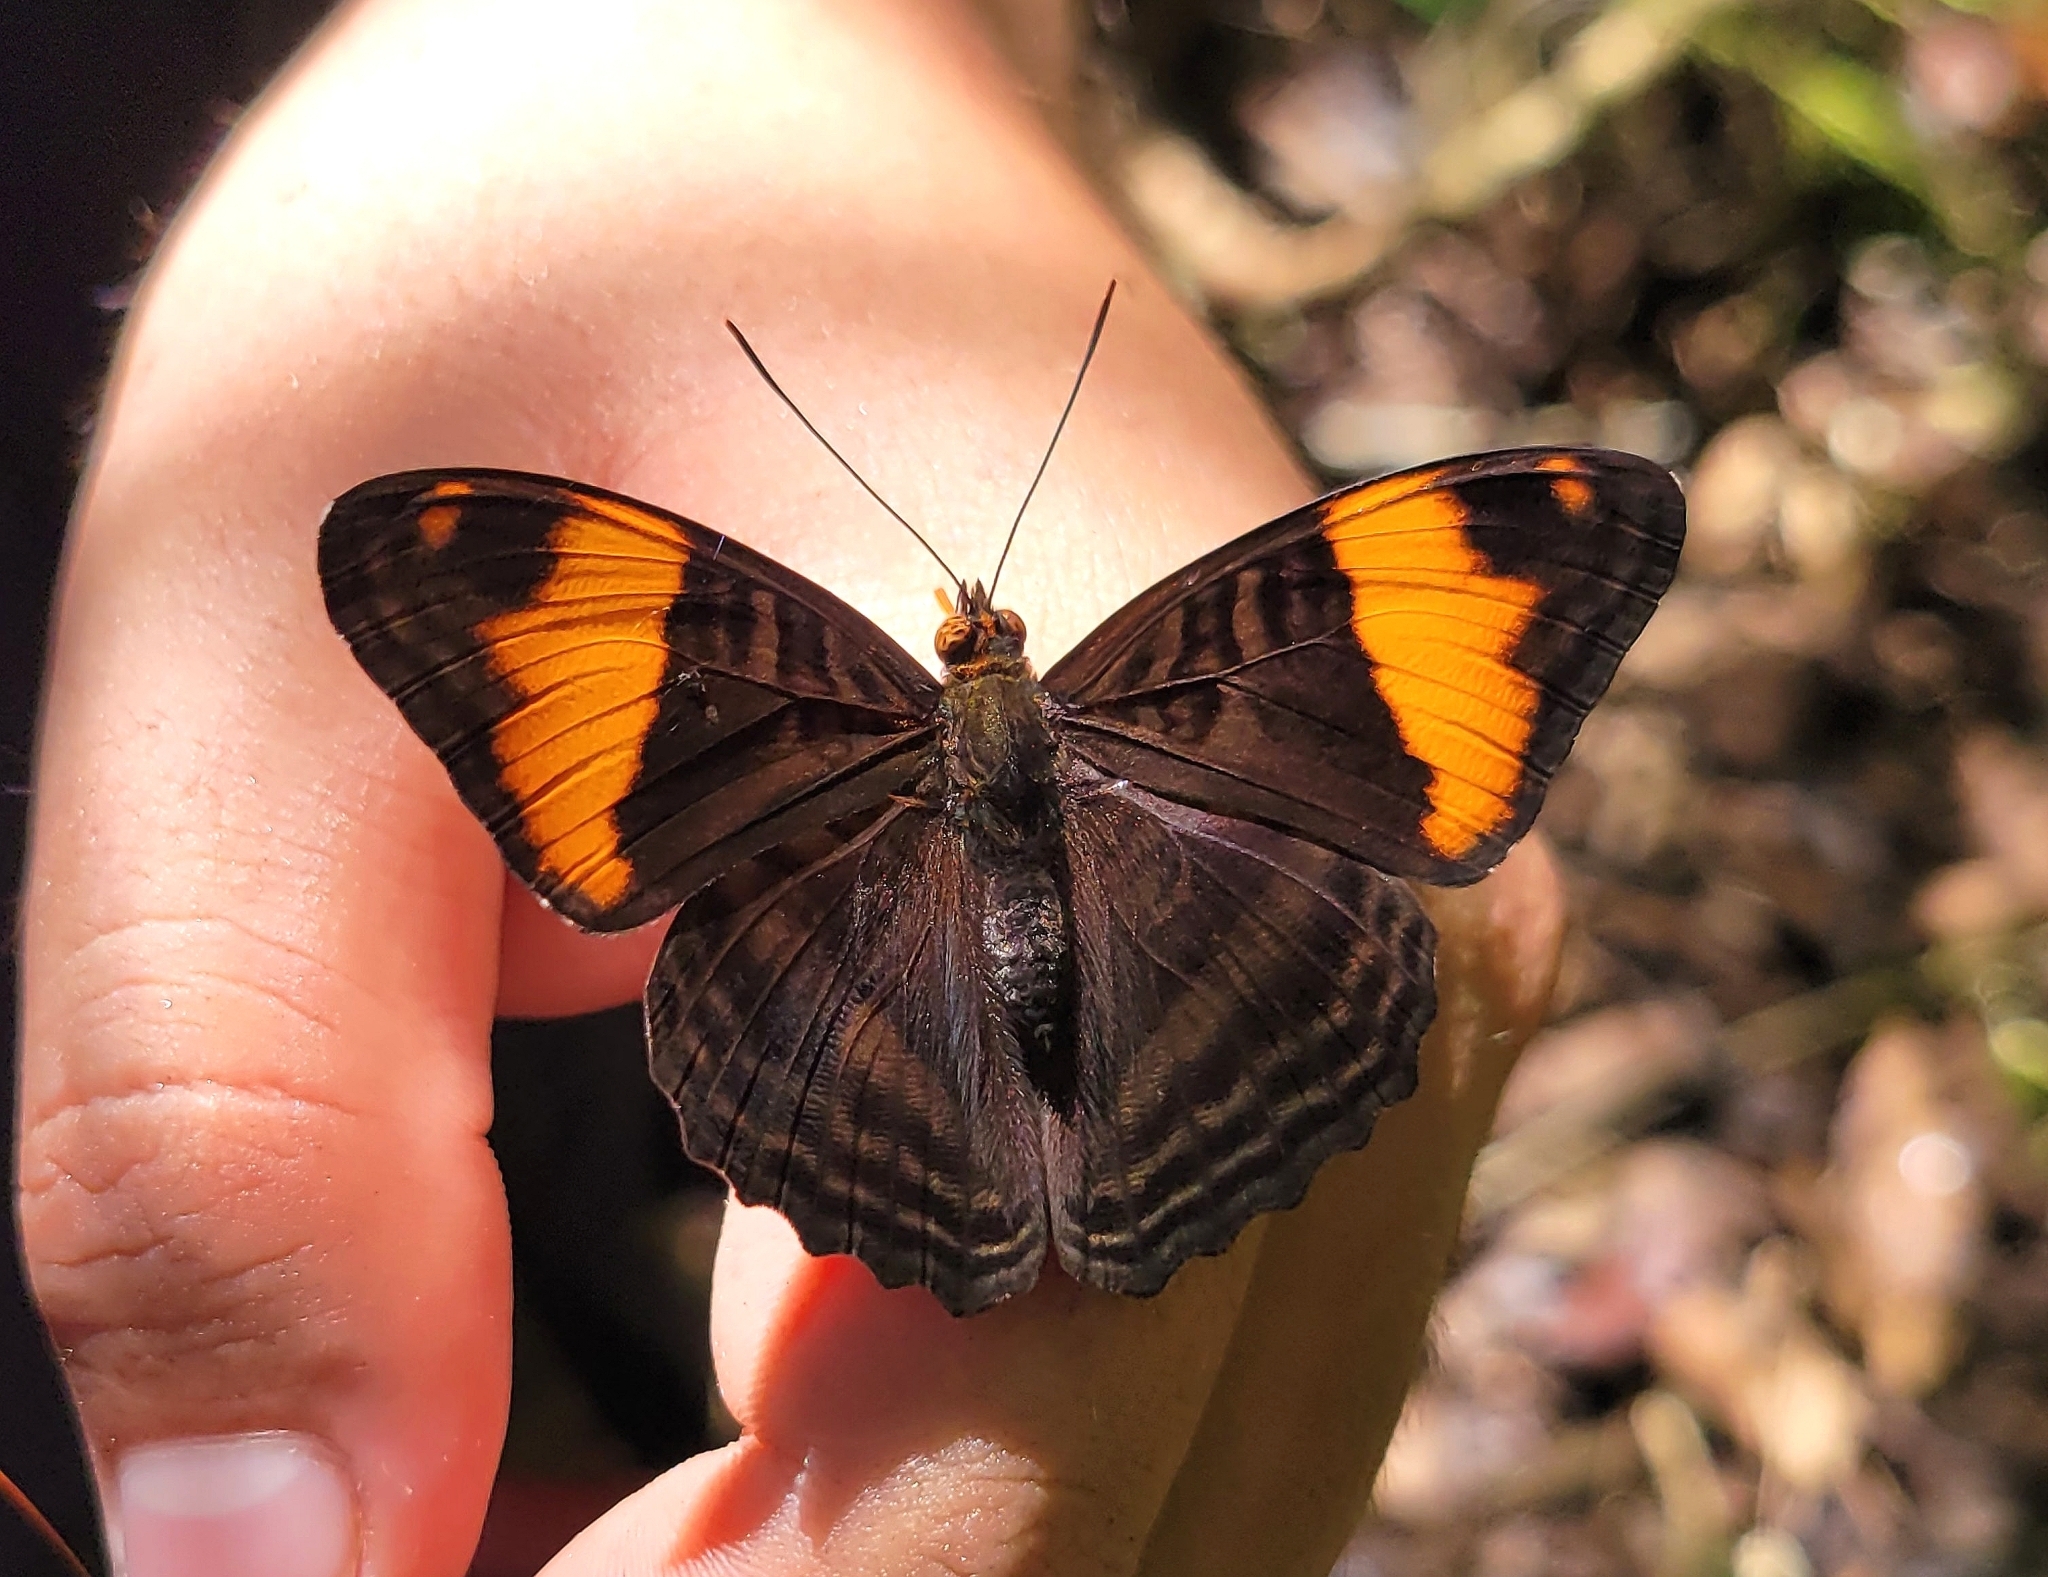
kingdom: Animalia
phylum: Arthropoda
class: Insecta
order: Lepidoptera
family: Nymphalidae
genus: Limenitis
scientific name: Limenitis boreas
